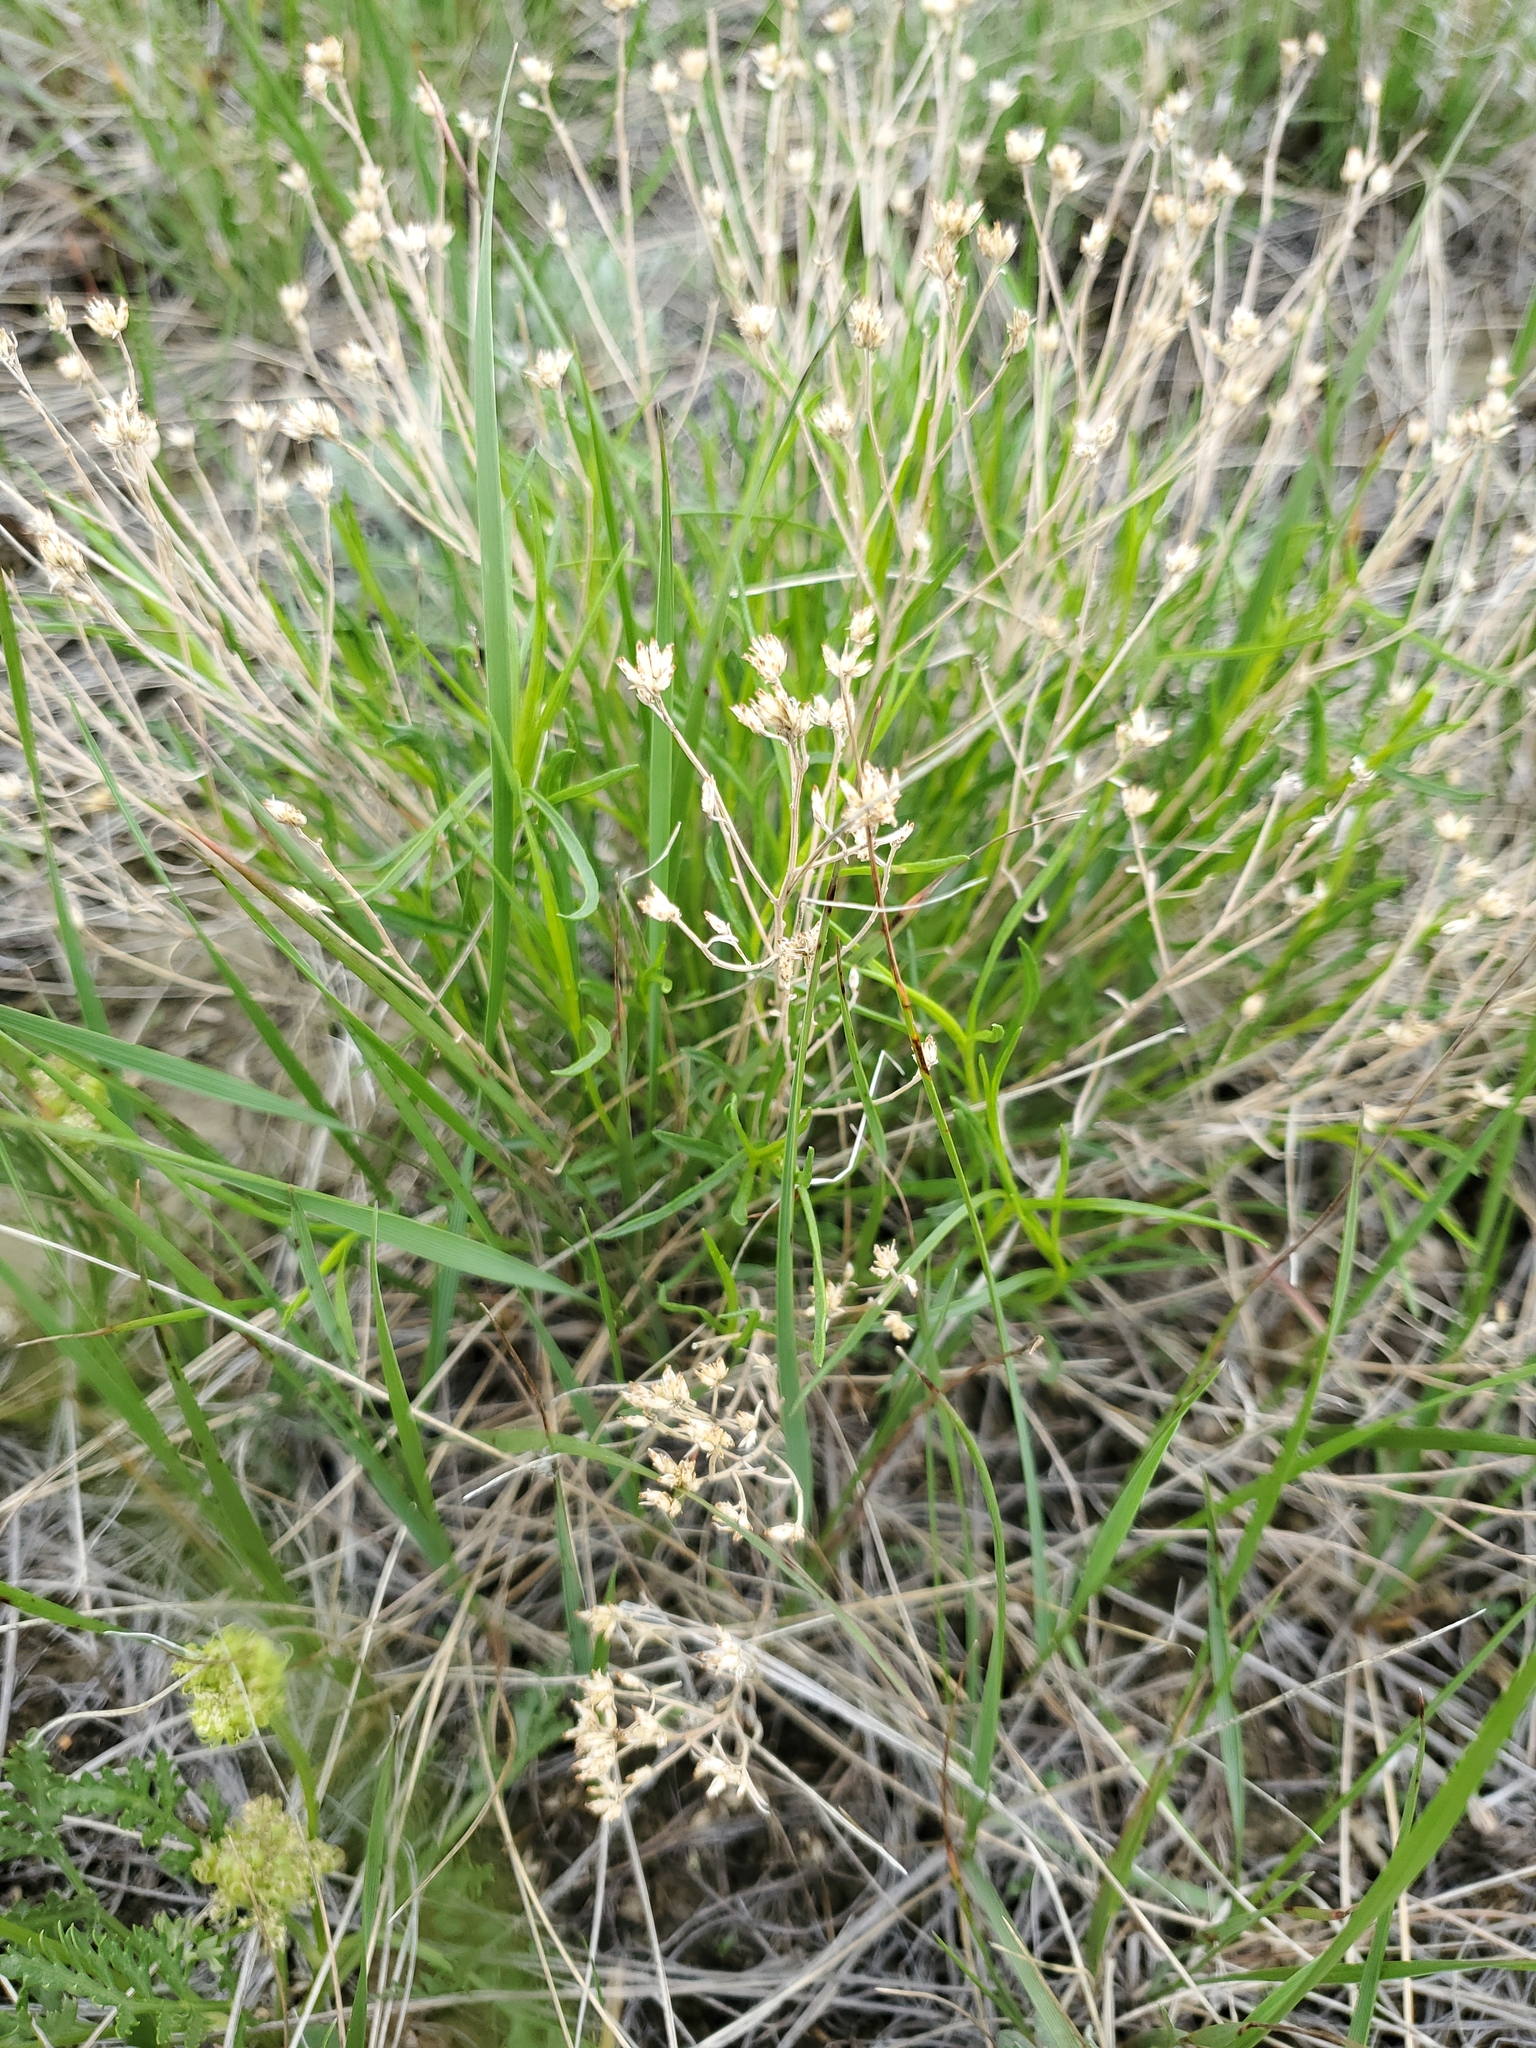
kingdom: Plantae
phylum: Tracheophyta
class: Magnoliopsida
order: Asterales
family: Asteraceae
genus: Gutierrezia
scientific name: Gutierrezia sarothrae
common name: Broom snakeweed
